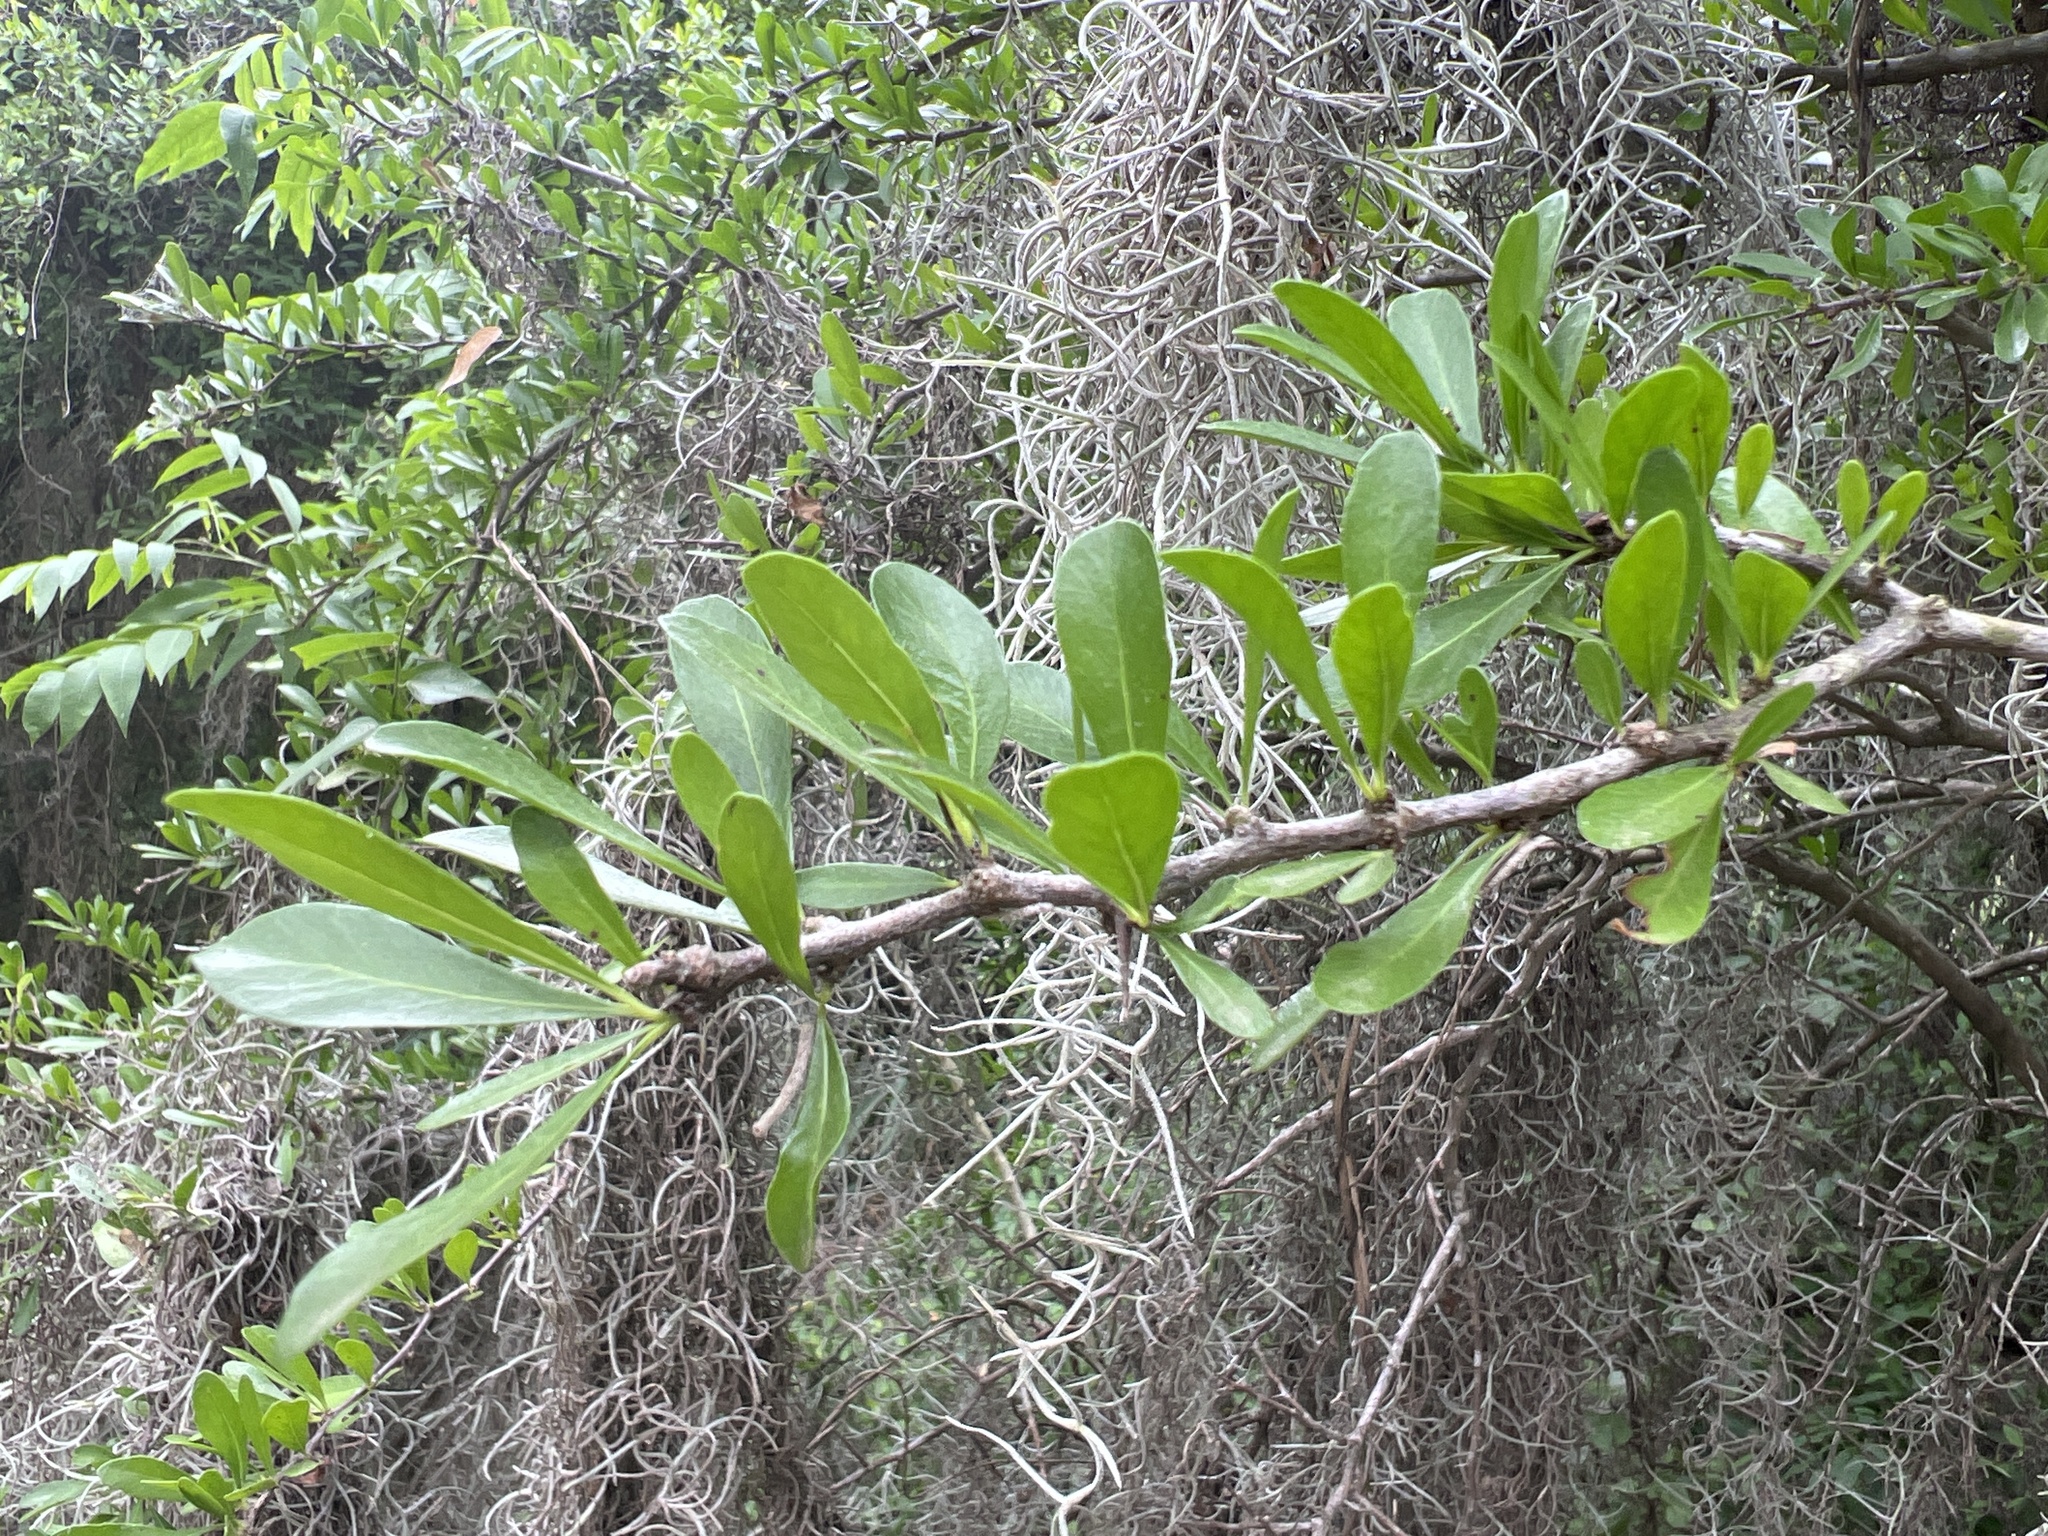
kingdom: Plantae
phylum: Tracheophyta
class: Magnoliopsida
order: Ericales
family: Sapotaceae
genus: Sideroxylon
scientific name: Sideroxylon celastrinum
